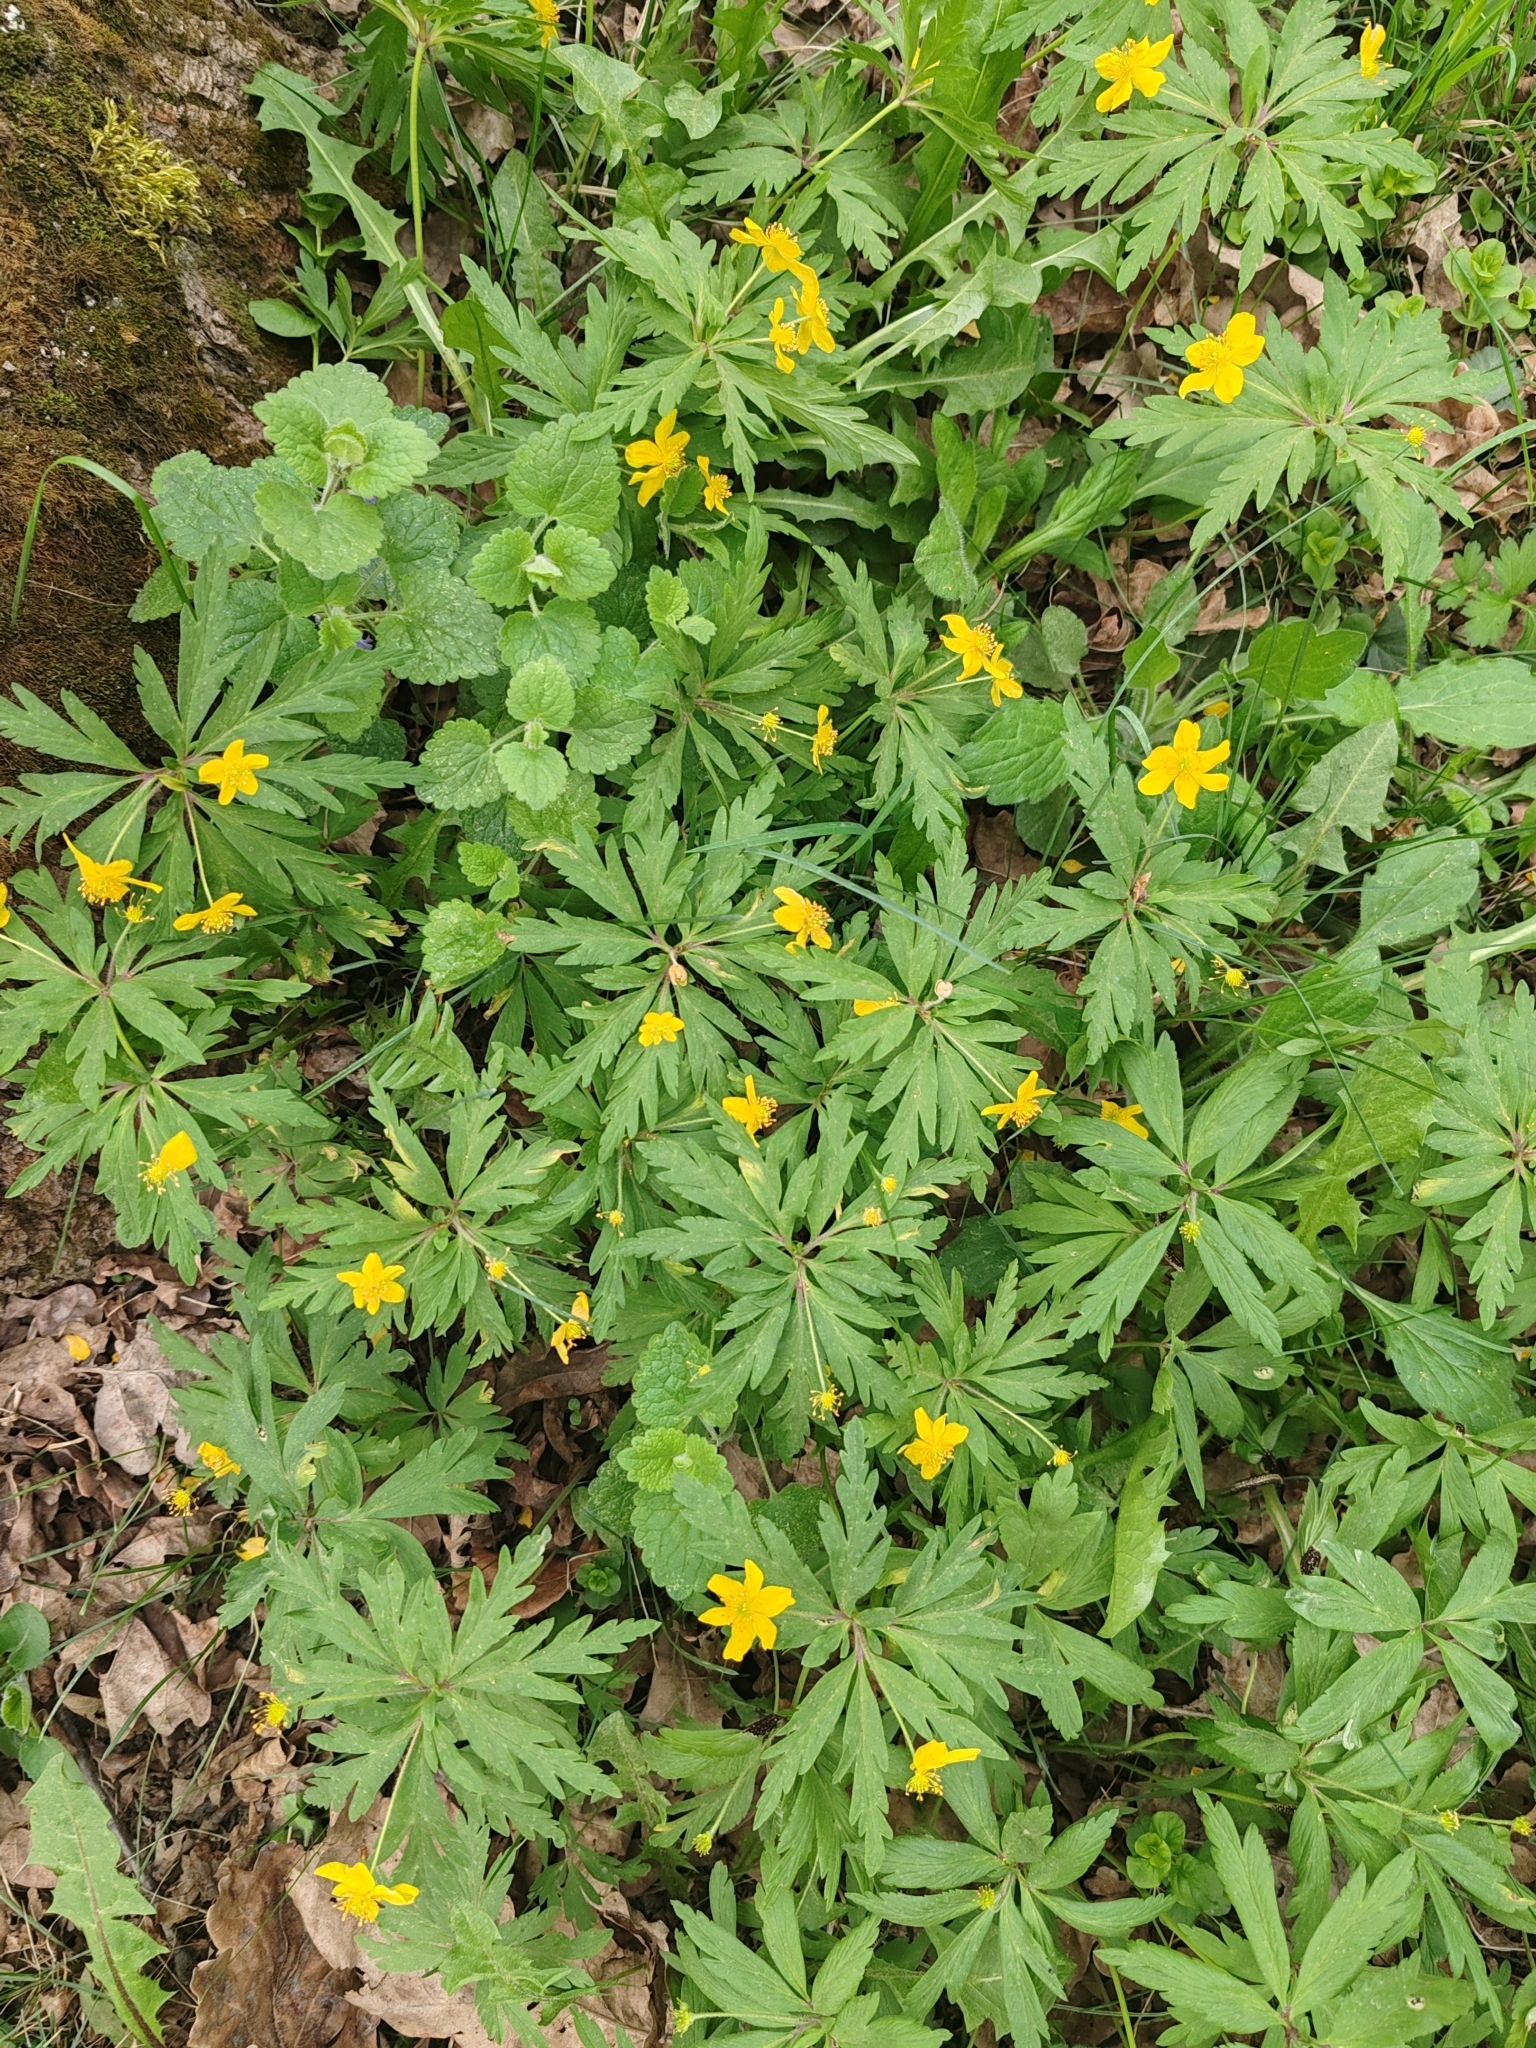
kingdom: Plantae
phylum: Tracheophyta
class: Magnoliopsida
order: Ranunculales
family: Ranunculaceae
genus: Anemone
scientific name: Anemone ranunculoides
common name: Yellow anemone
